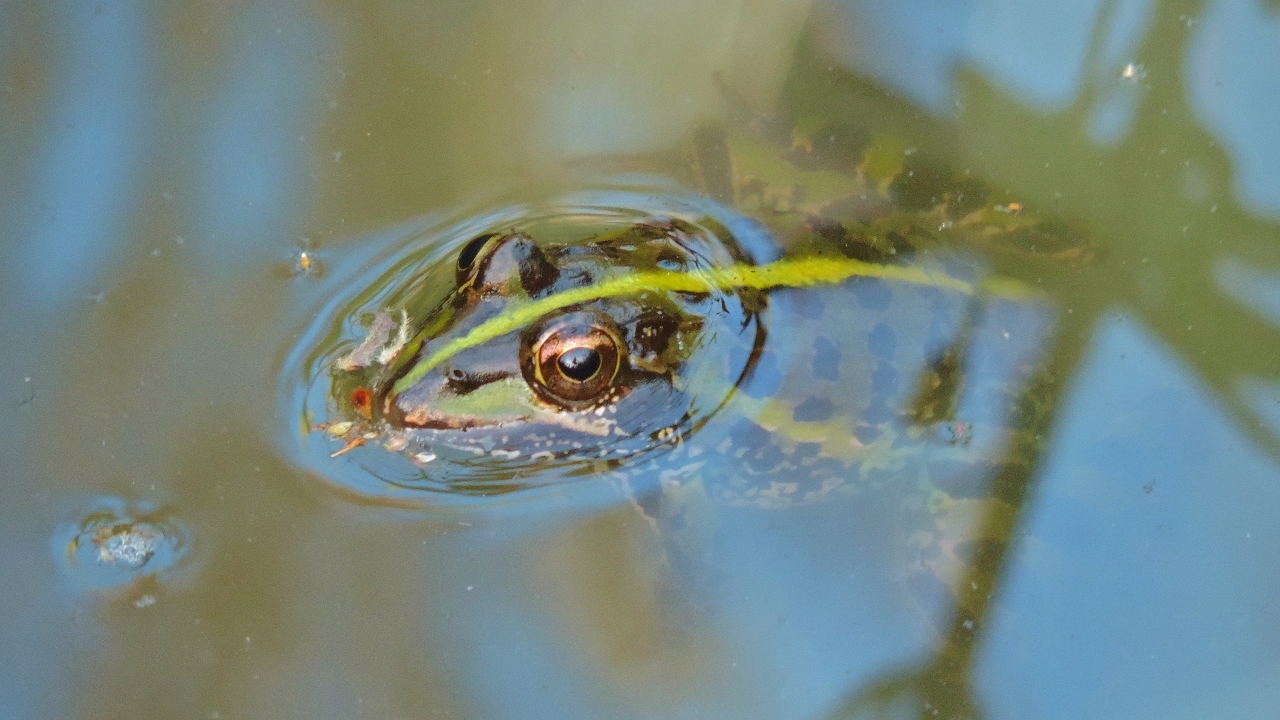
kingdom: Animalia
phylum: Chordata
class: Amphibia
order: Anura
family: Pyxicephalidae
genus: Amietia
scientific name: Amietia delalandii
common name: Delalande's river frog
